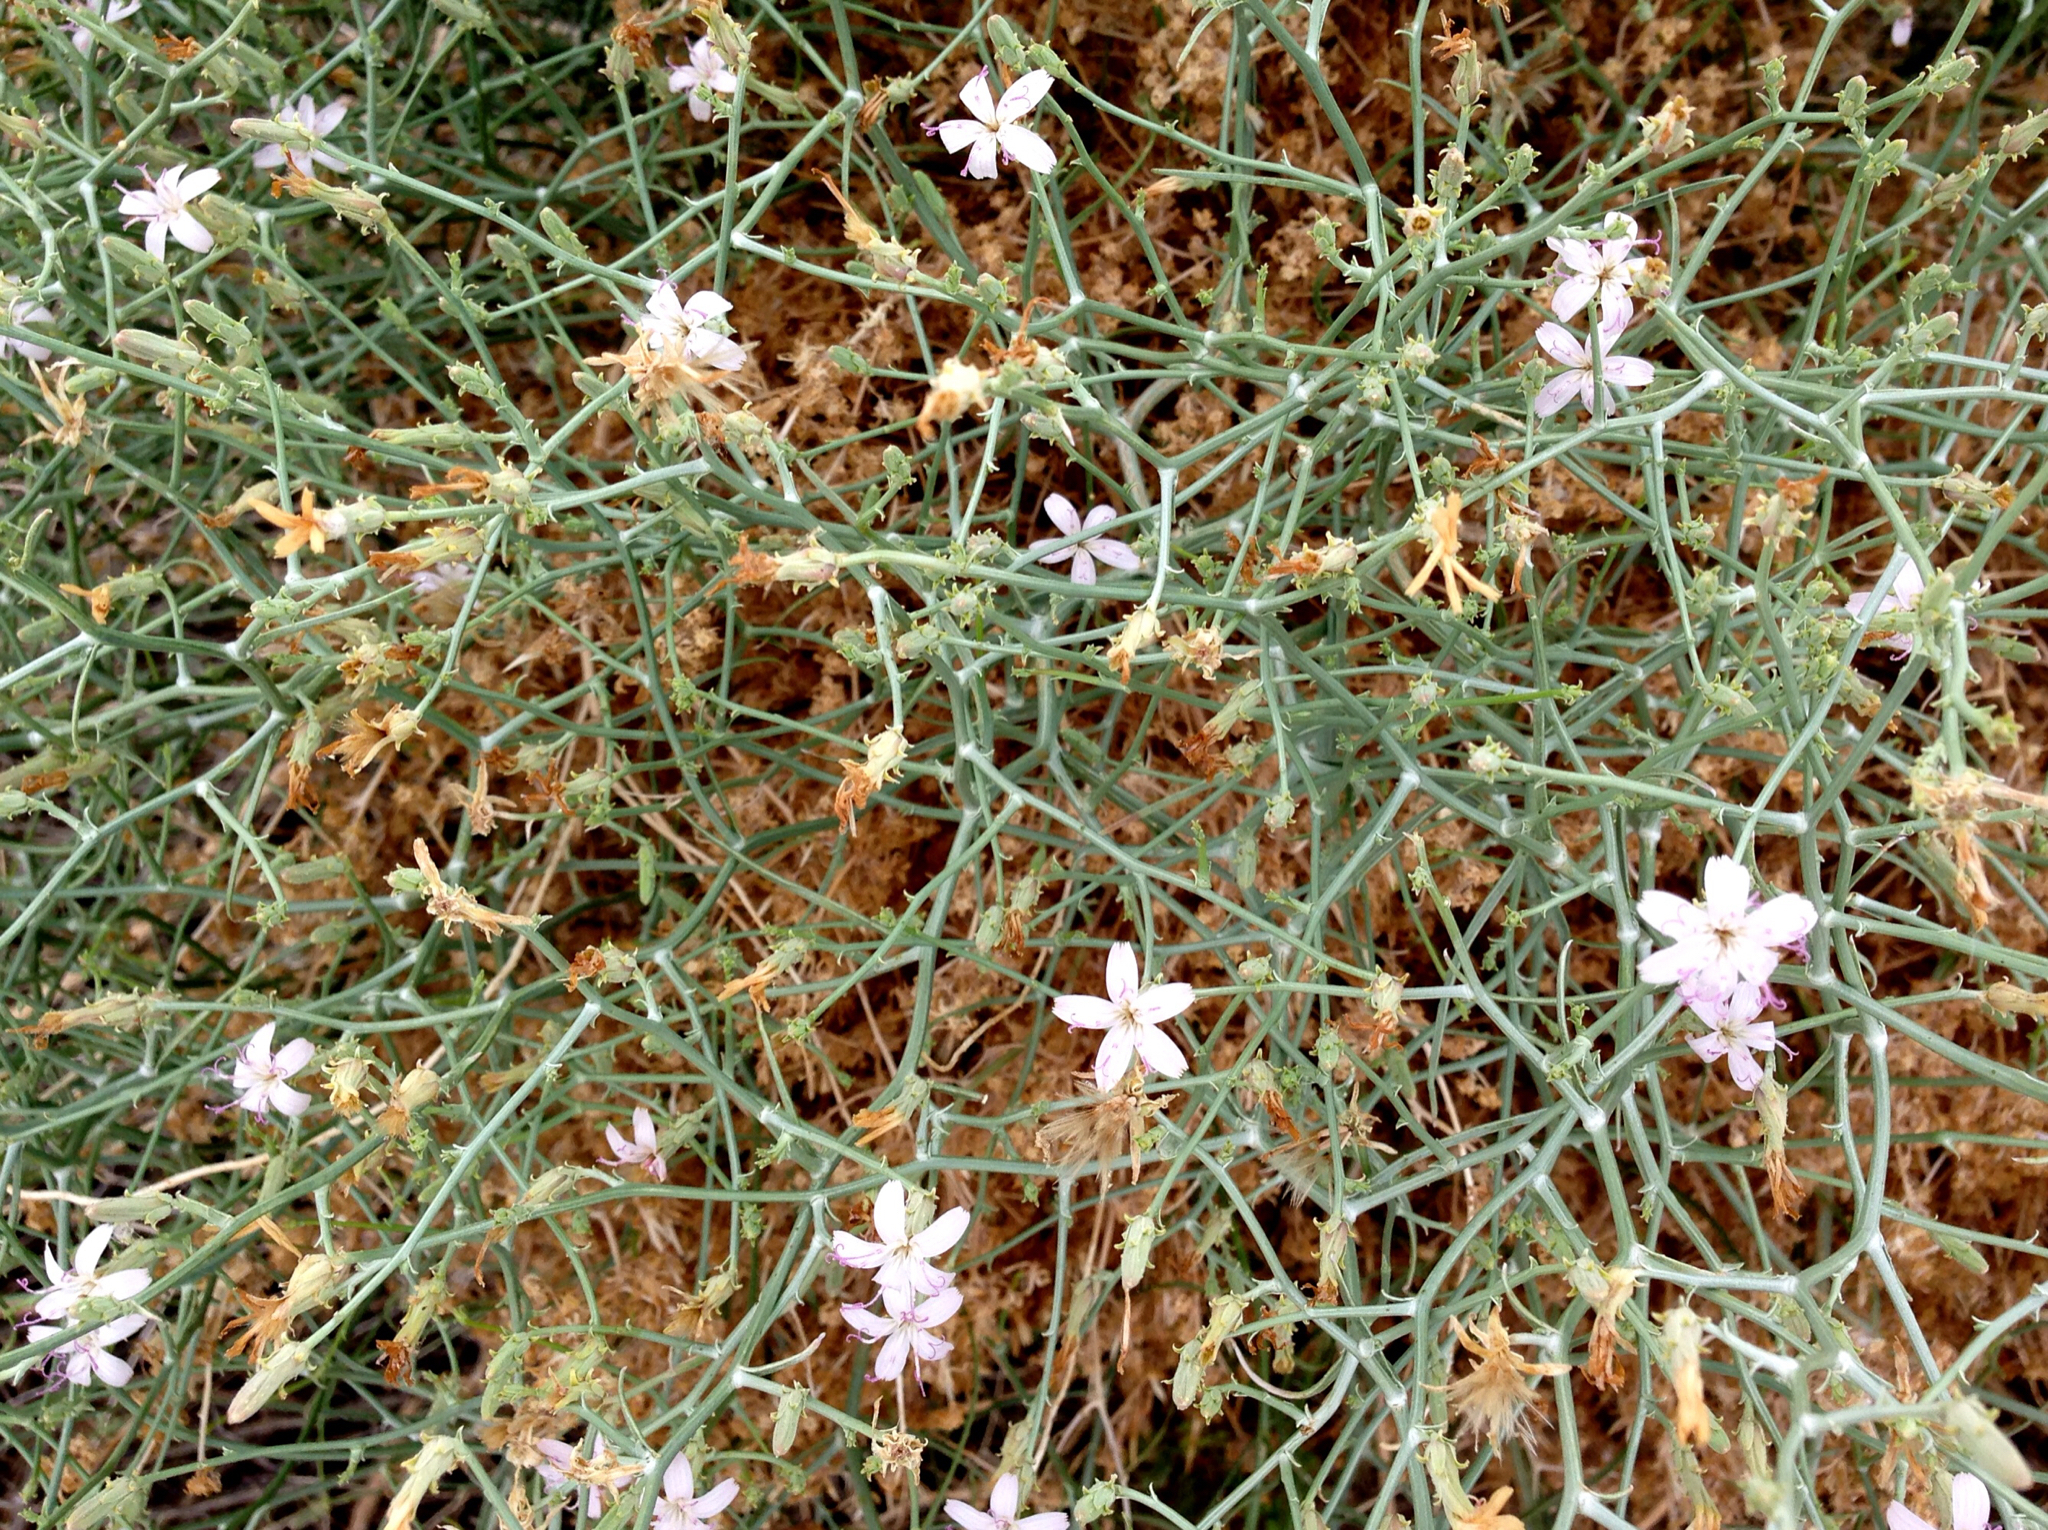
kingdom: Plantae
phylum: Tracheophyta
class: Magnoliopsida
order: Asterales
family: Asteraceae
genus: Stephanomeria
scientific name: Stephanomeria pauciflora
